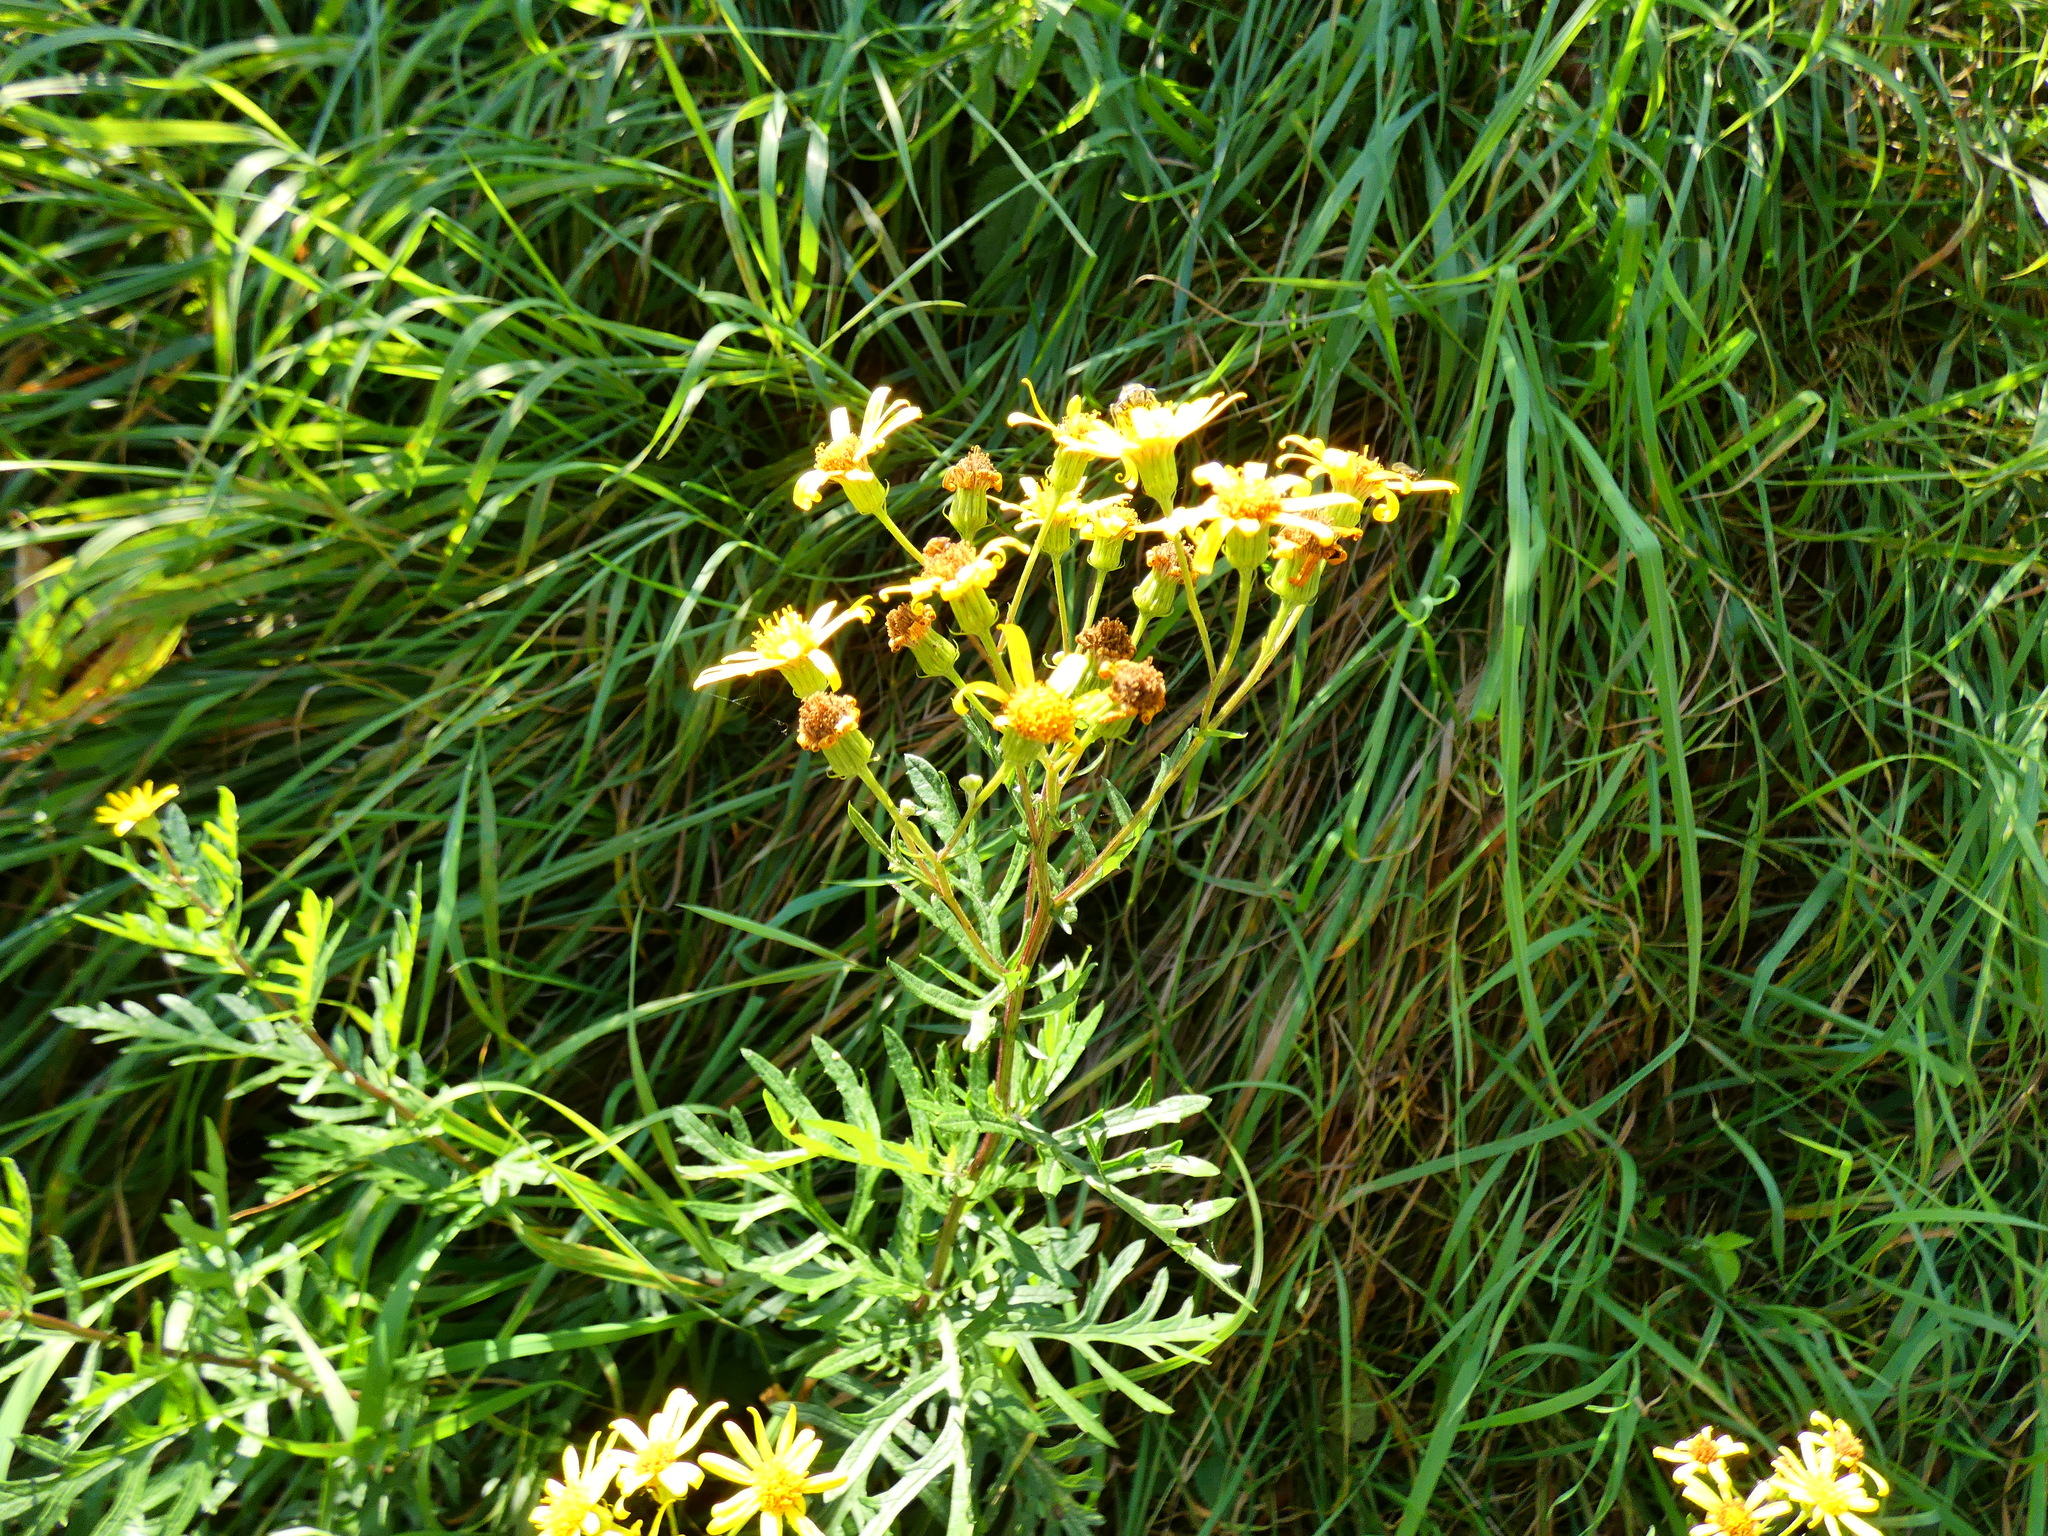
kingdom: Plantae
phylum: Tracheophyta
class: Magnoliopsida
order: Asterales
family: Asteraceae
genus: Jacobaea
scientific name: Jacobaea erucifolia
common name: Hoary ragwort
